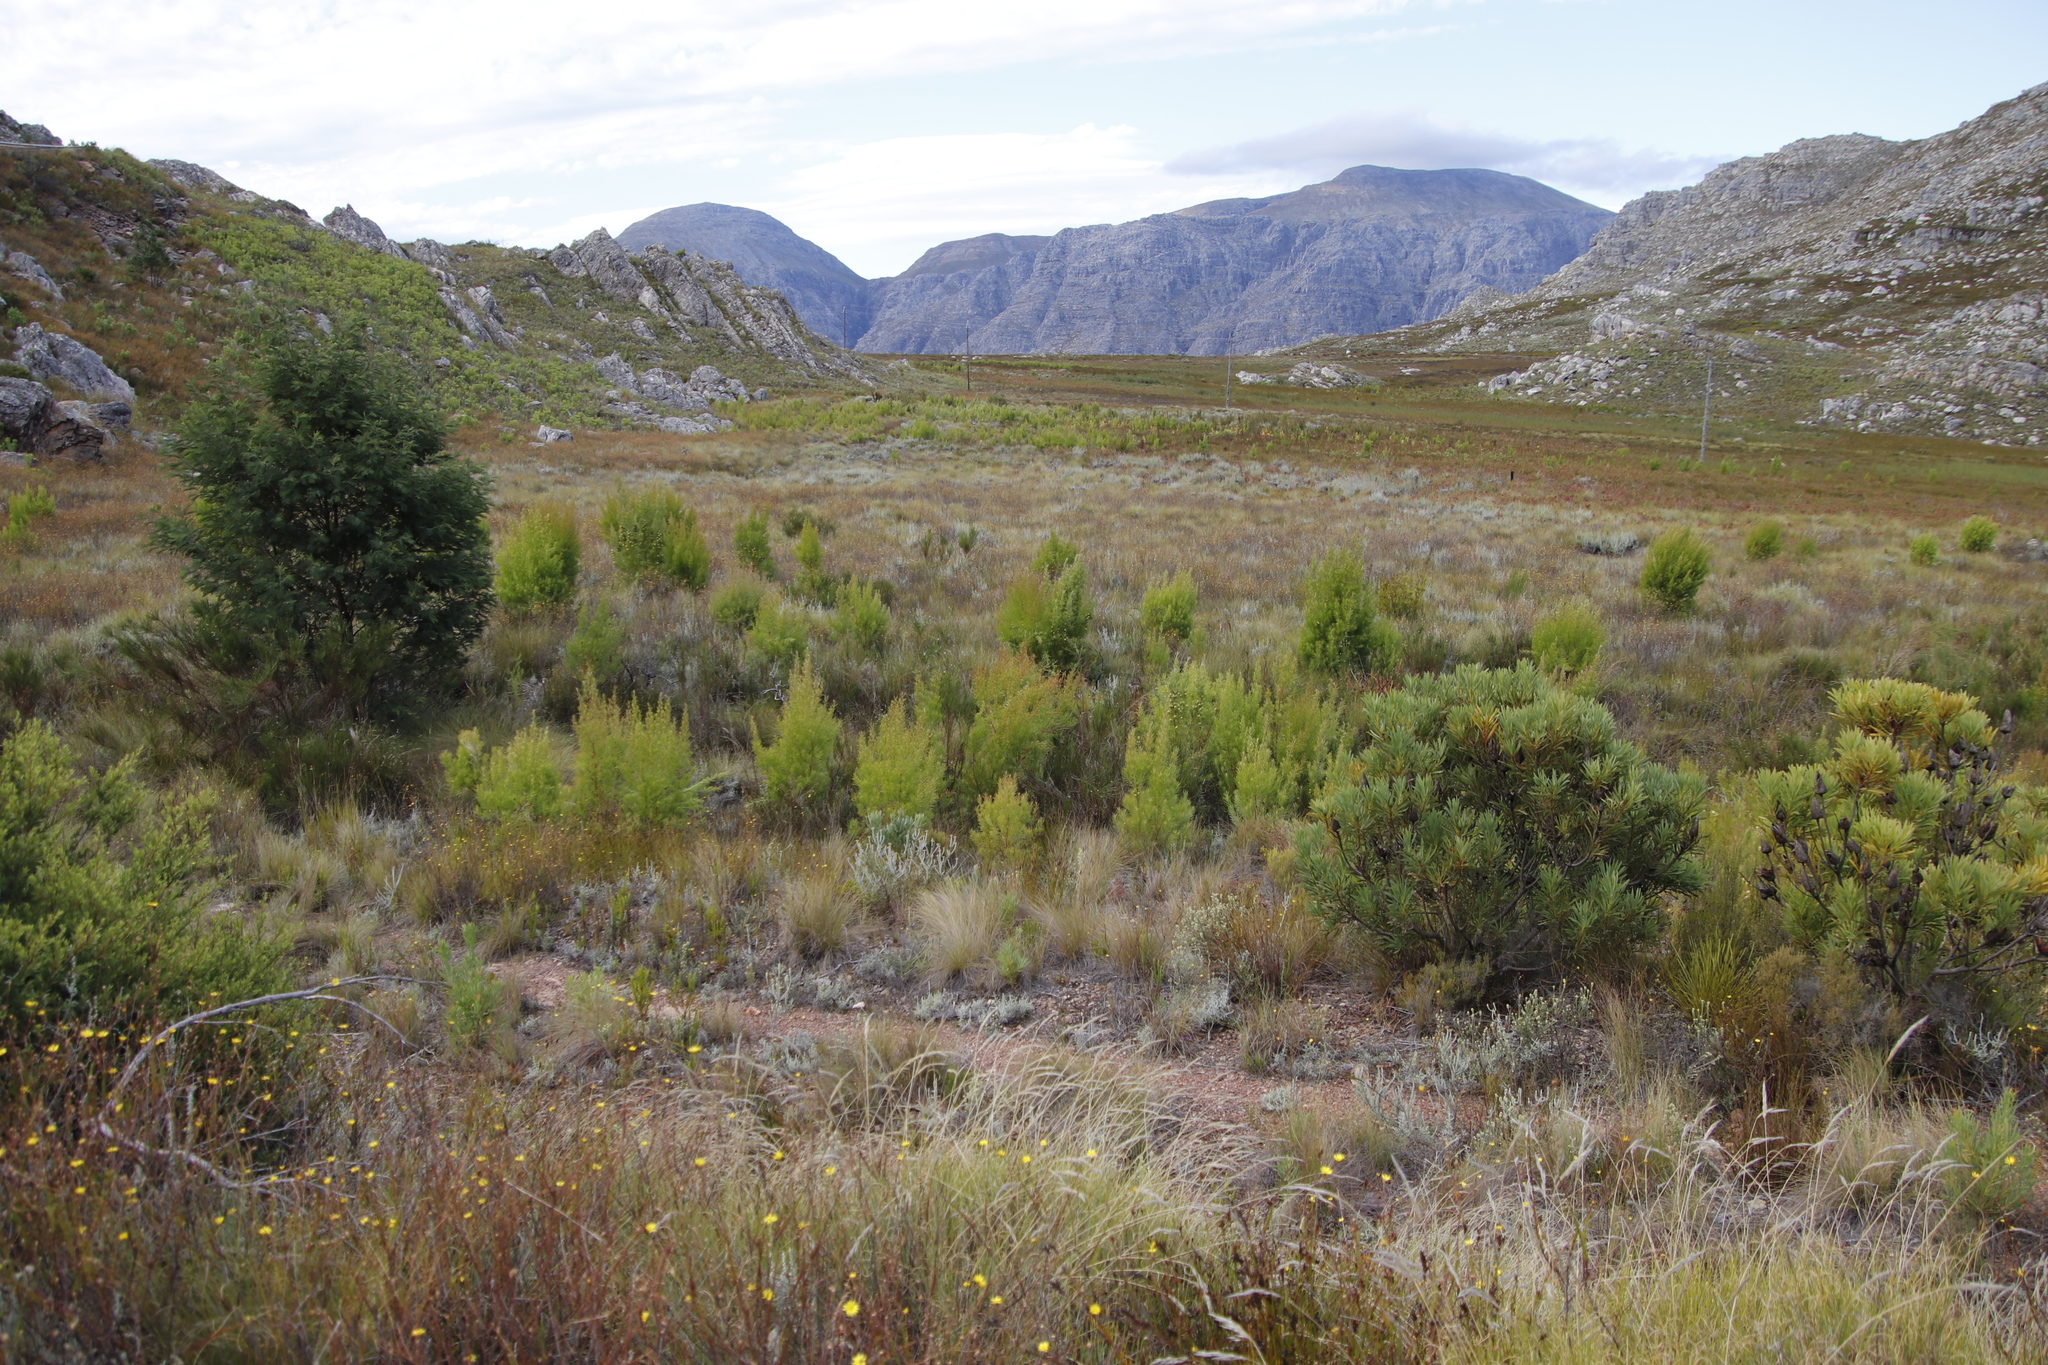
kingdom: Plantae
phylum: Tracheophyta
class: Magnoliopsida
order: Proteales
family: Proteaceae
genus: Leucadendron
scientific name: Leucadendron salicifolium
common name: Common stream conebush
